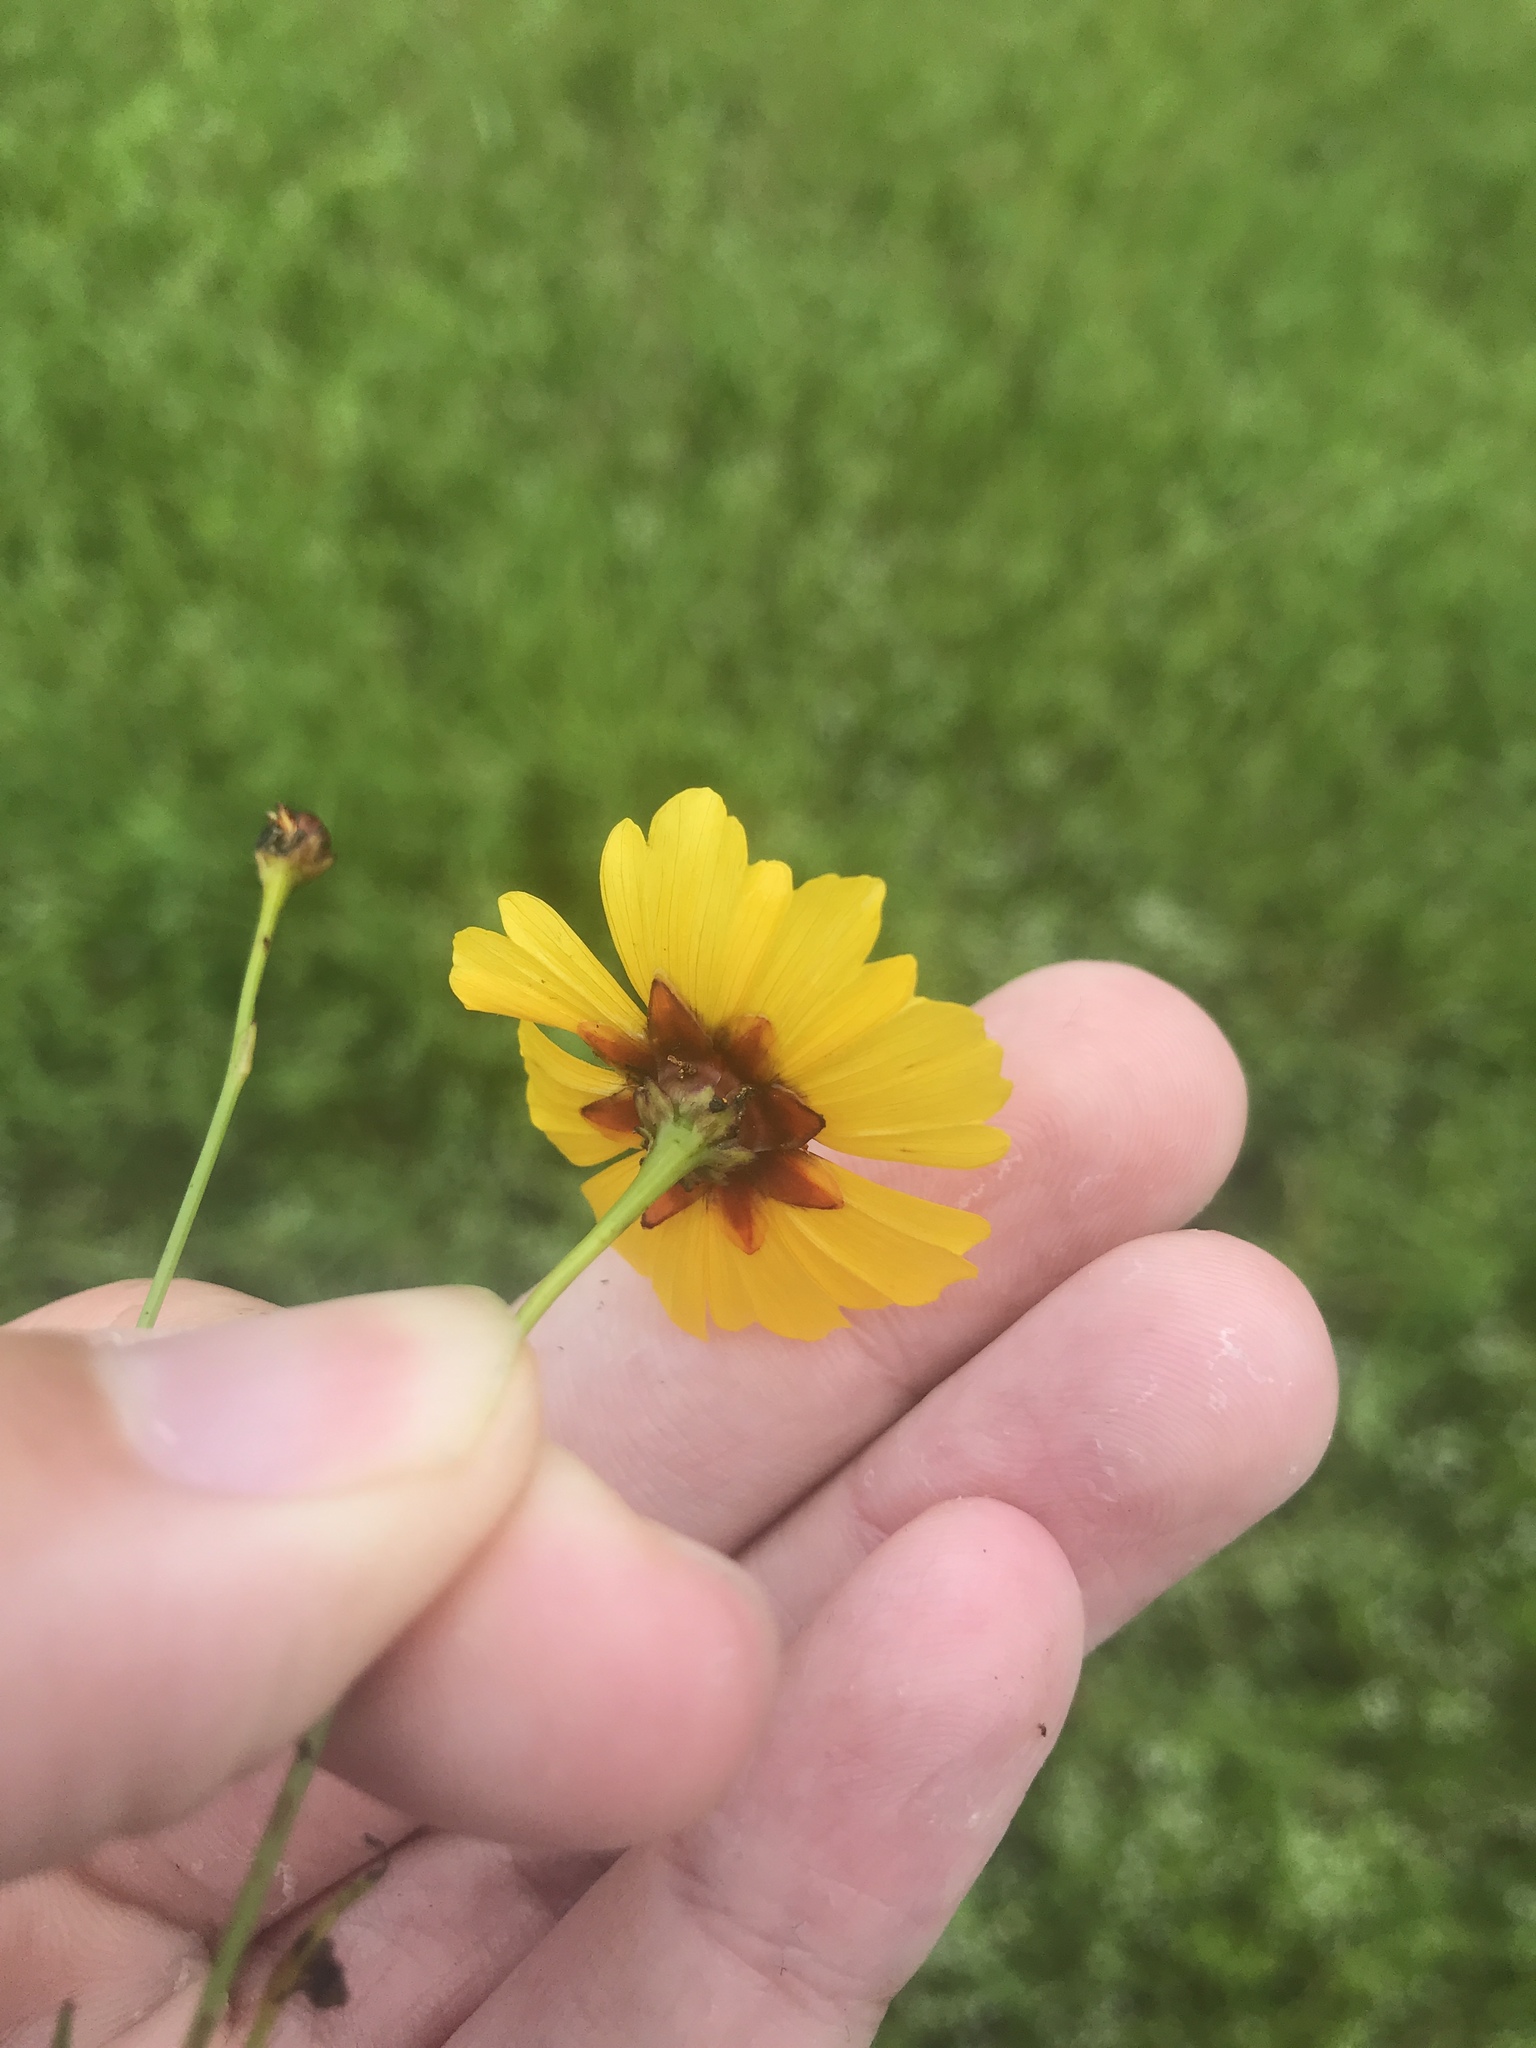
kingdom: Plantae
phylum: Tracheophyta
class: Magnoliopsida
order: Asterales
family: Asteraceae
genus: Coreopsis
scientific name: Coreopsis tinctoria
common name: Garden tickseed
